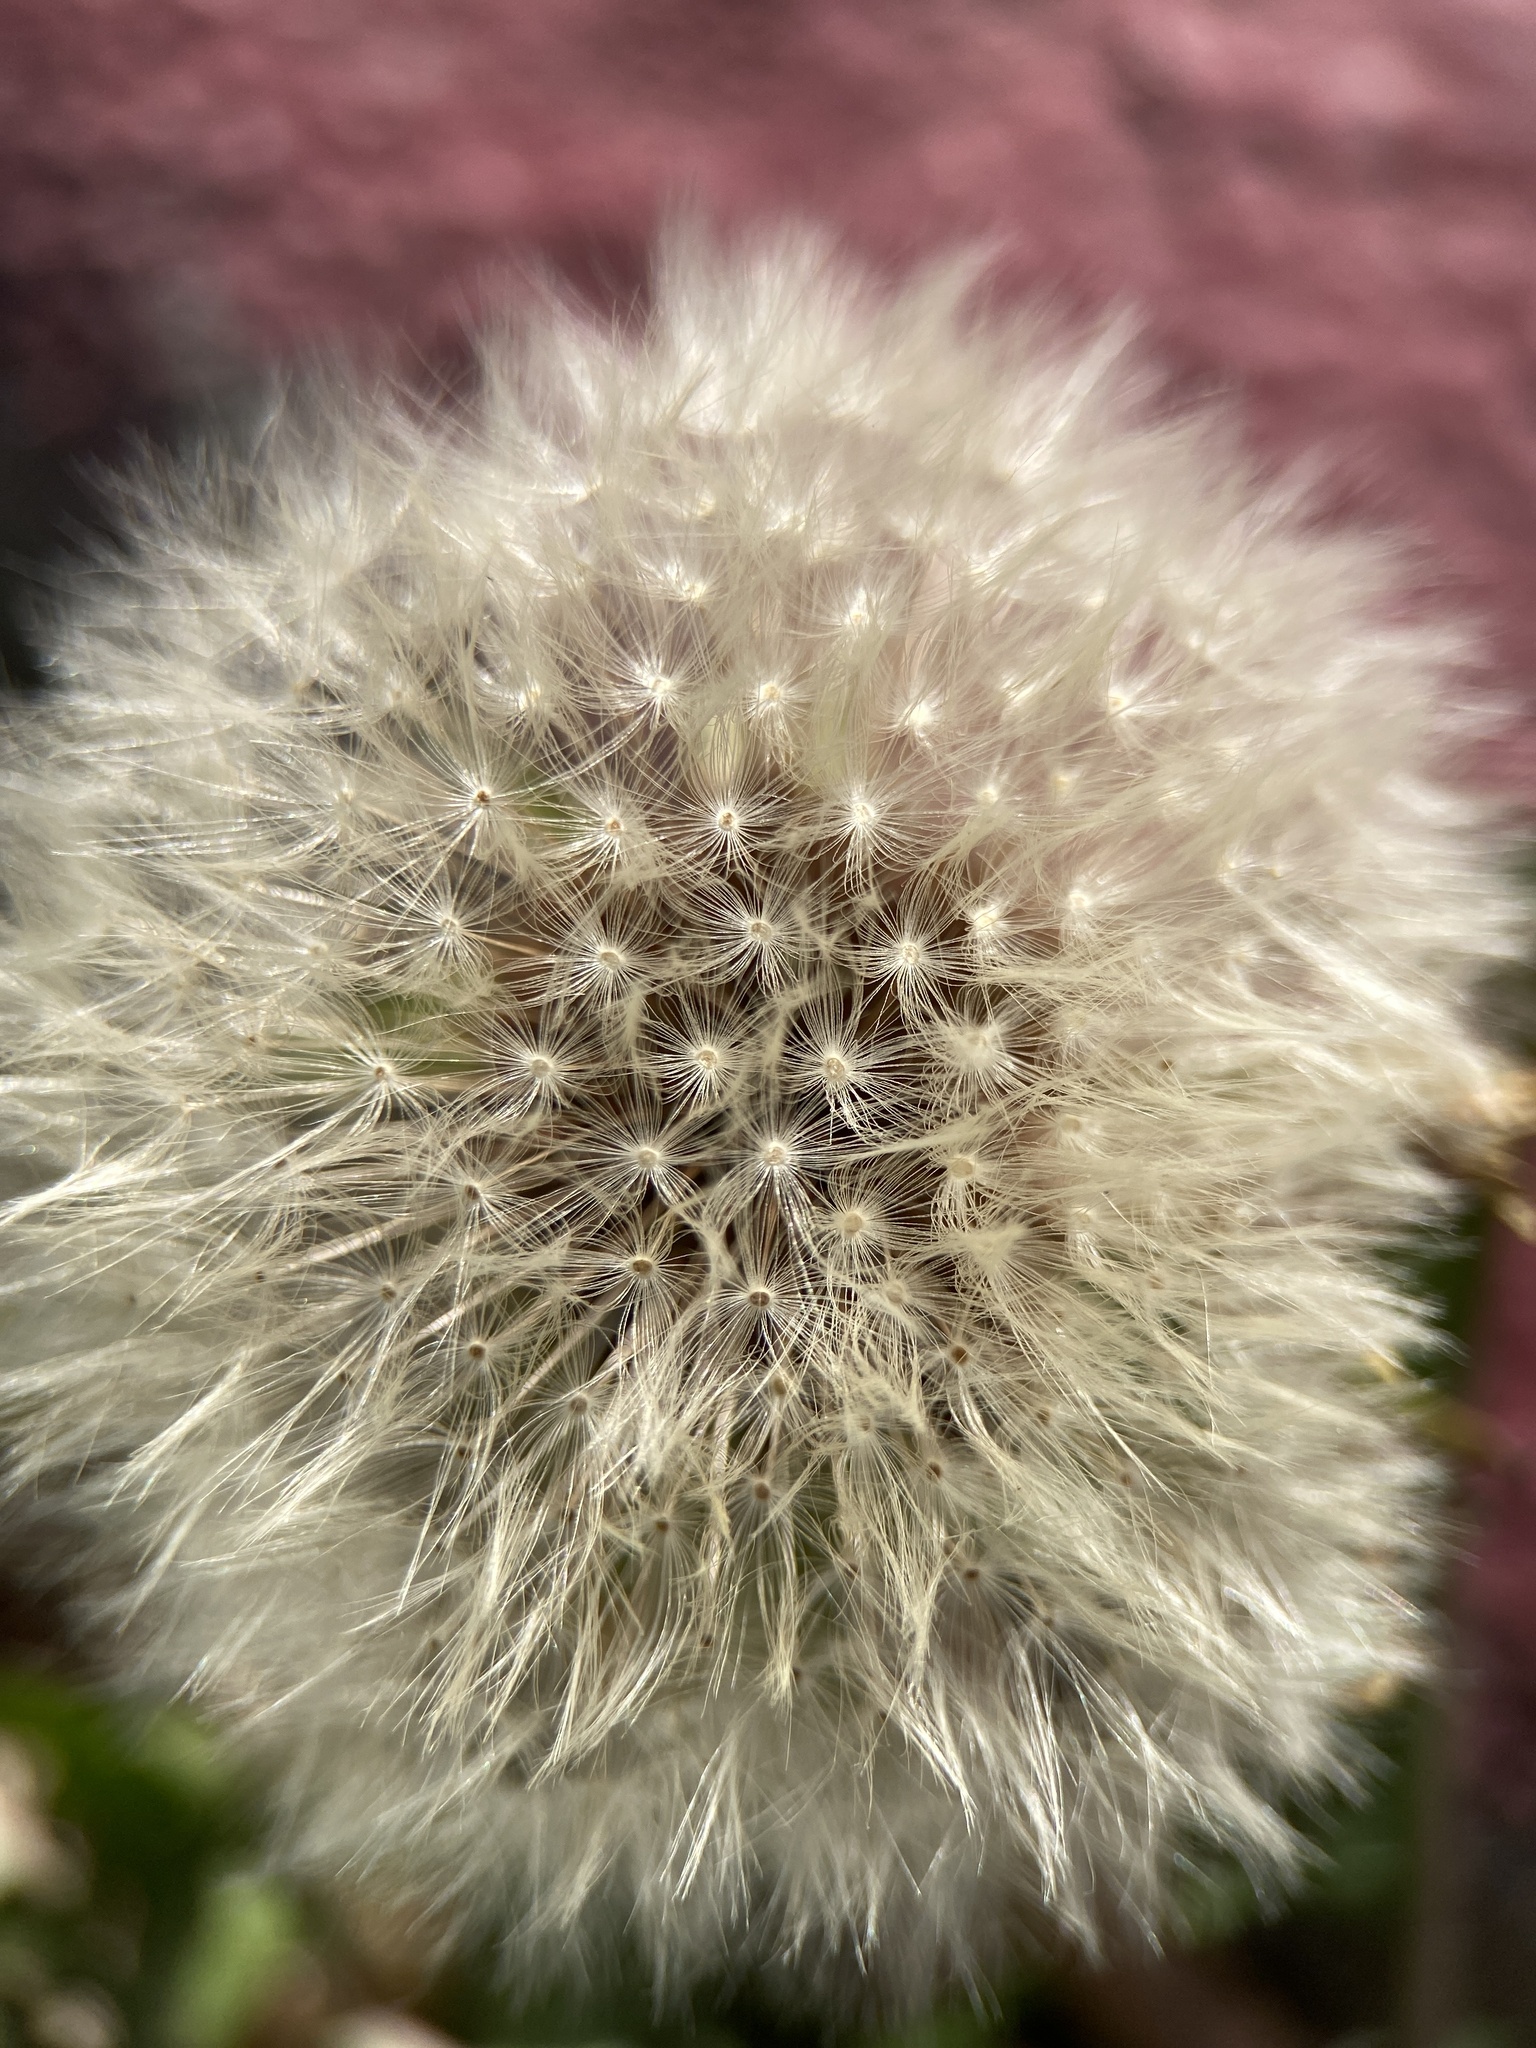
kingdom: Plantae
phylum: Tracheophyta
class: Magnoliopsida
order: Asterales
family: Asteraceae
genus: Taraxacum
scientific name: Taraxacum officinale
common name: Common dandelion
